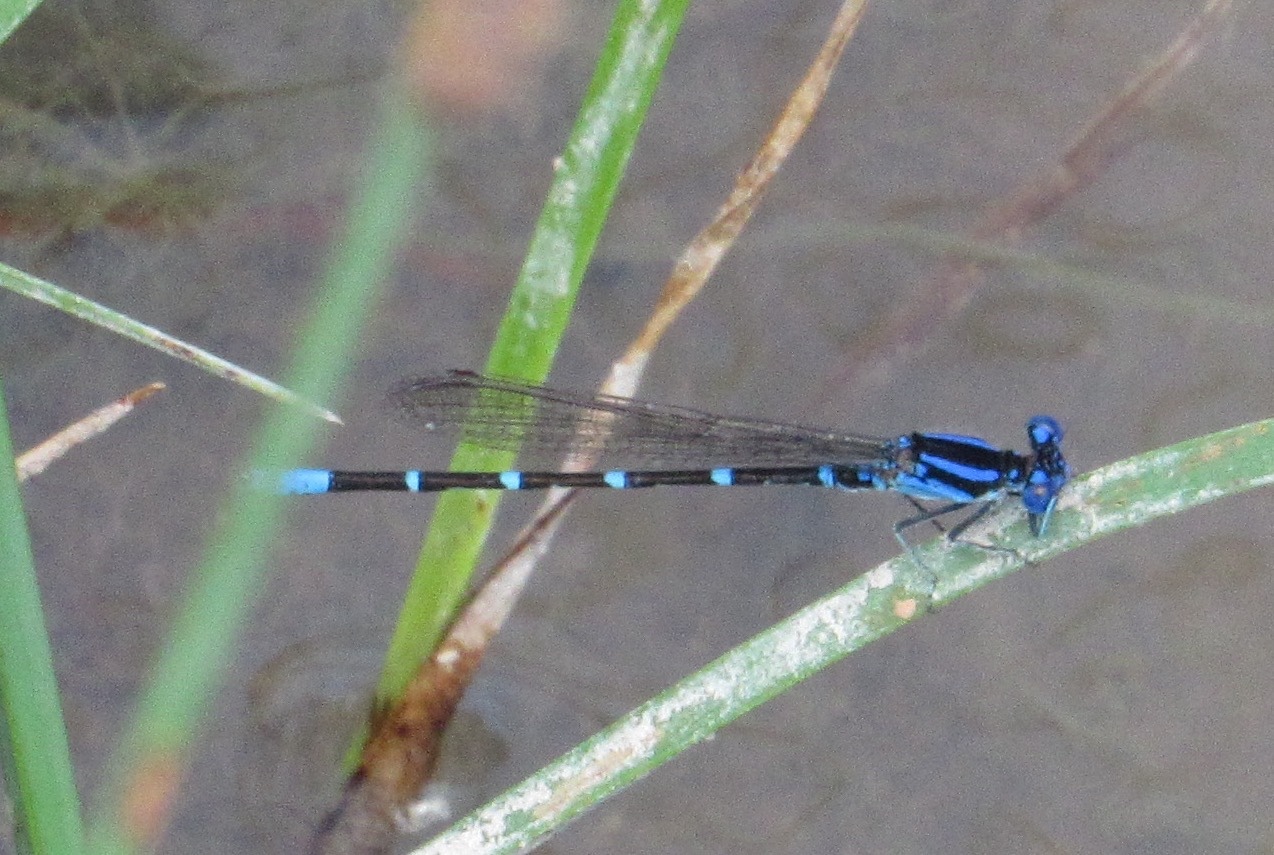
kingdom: Animalia
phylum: Arthropoda
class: Insecta
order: Odonata
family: Coenagrionidae
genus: Argia
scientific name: Argia sedula
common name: Blue-ringed dancer
